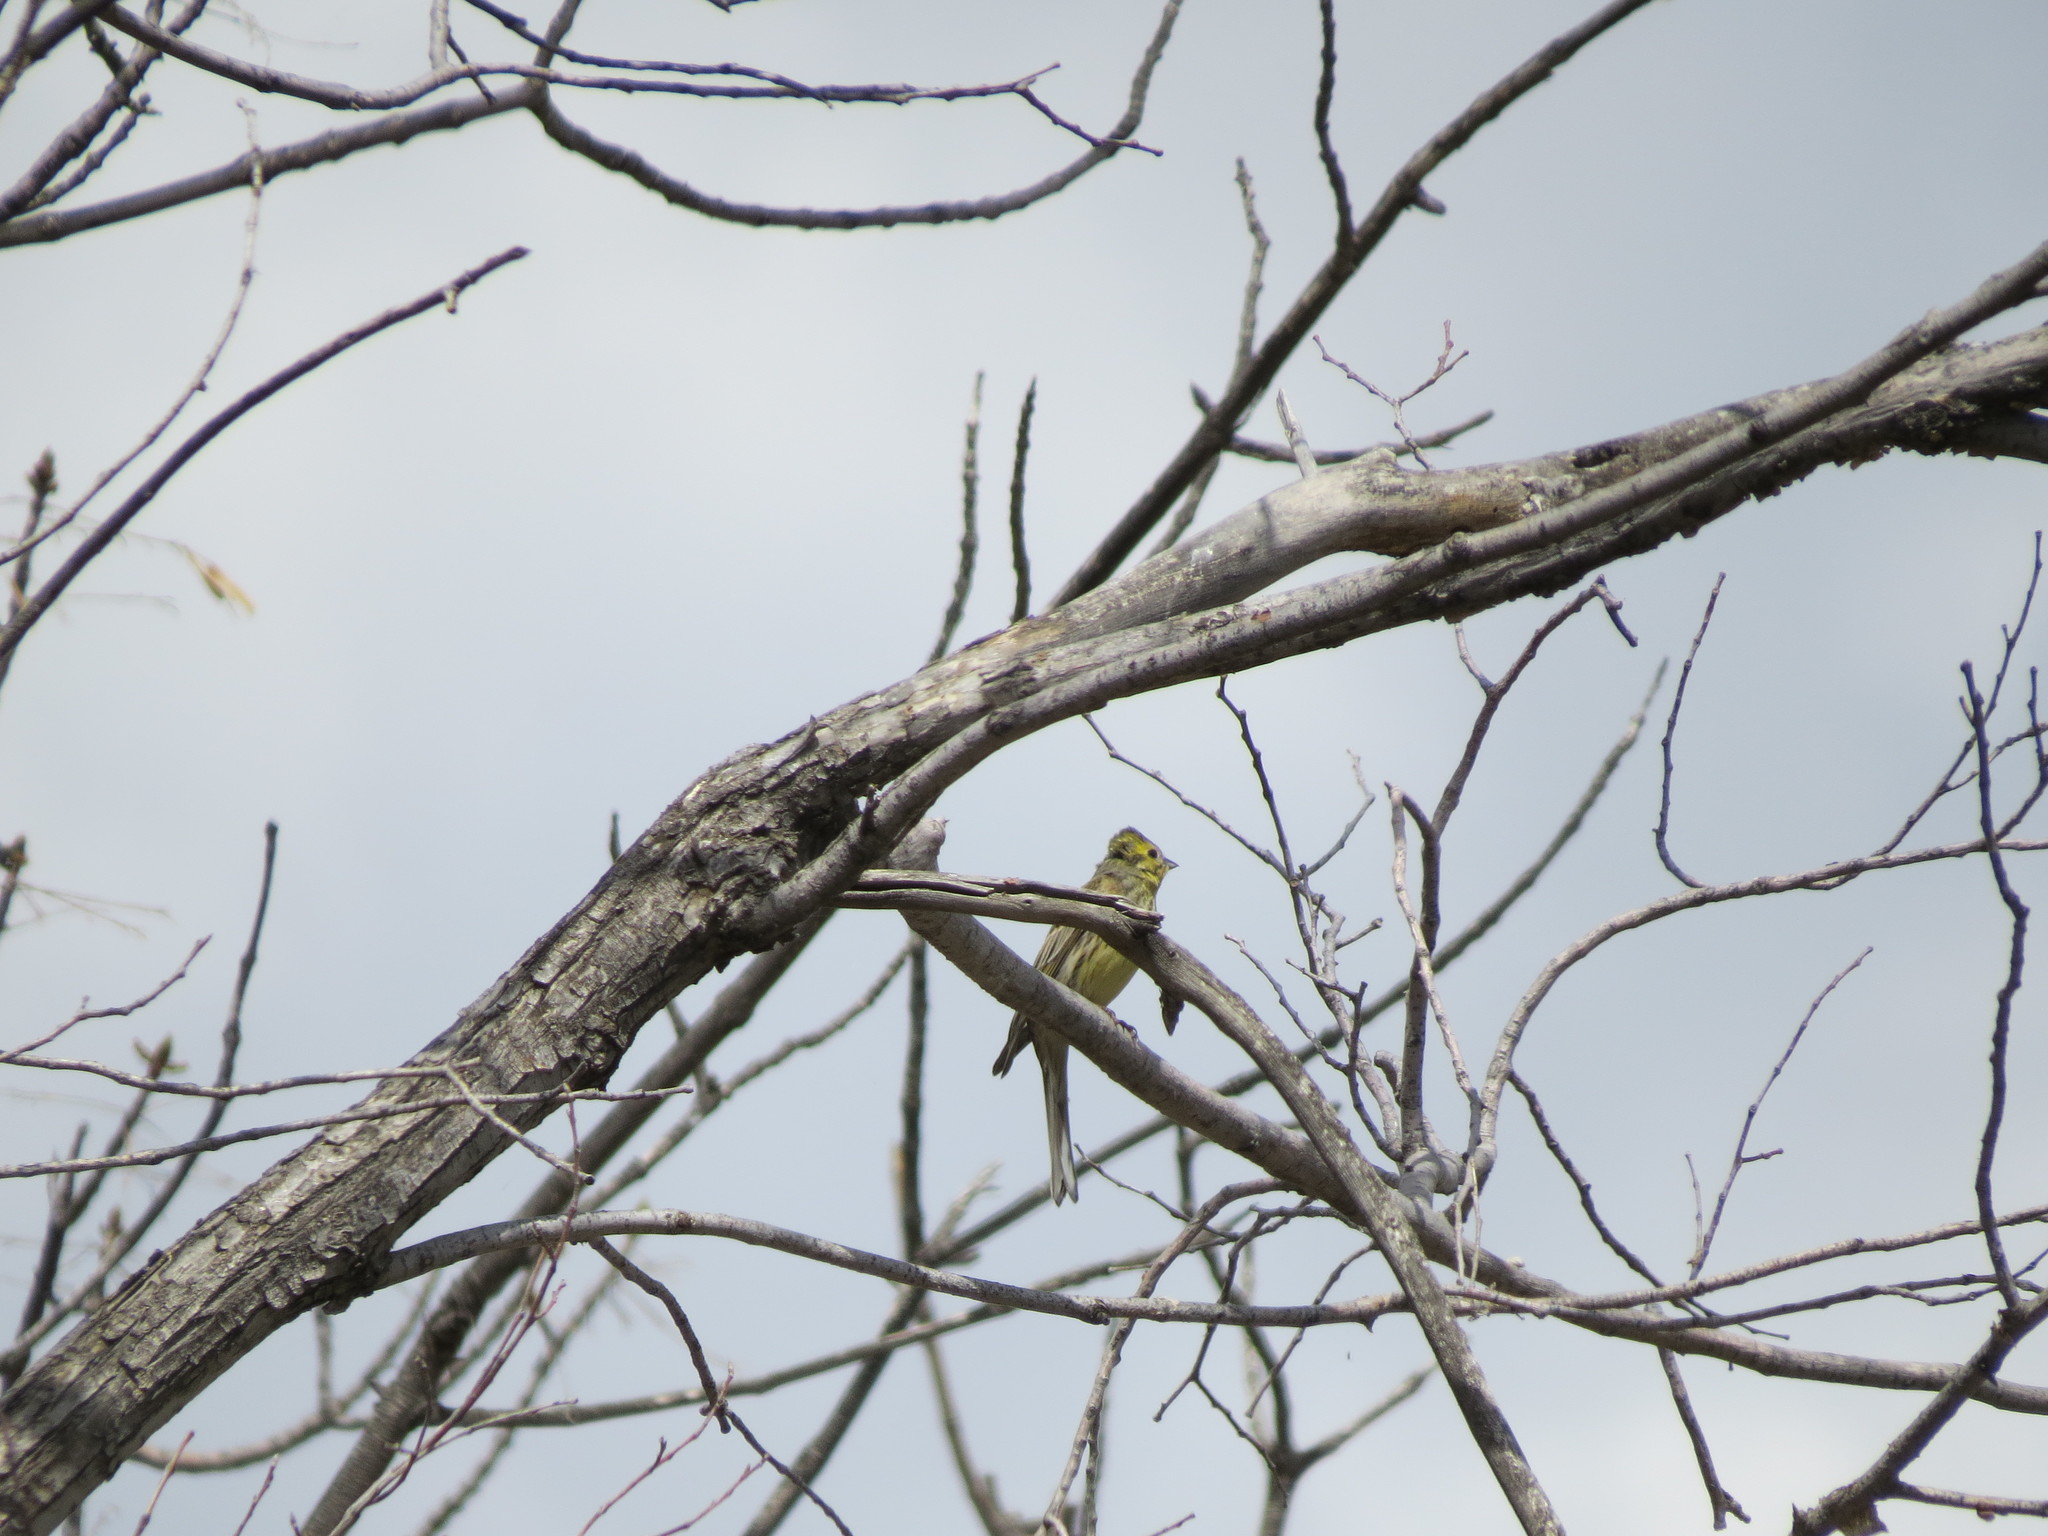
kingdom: Animalia
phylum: Chordata
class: Aves
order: Passeriformes
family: Emberizidae
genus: Emberiza
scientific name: Emberiza citrinella
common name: Yellowhammer
